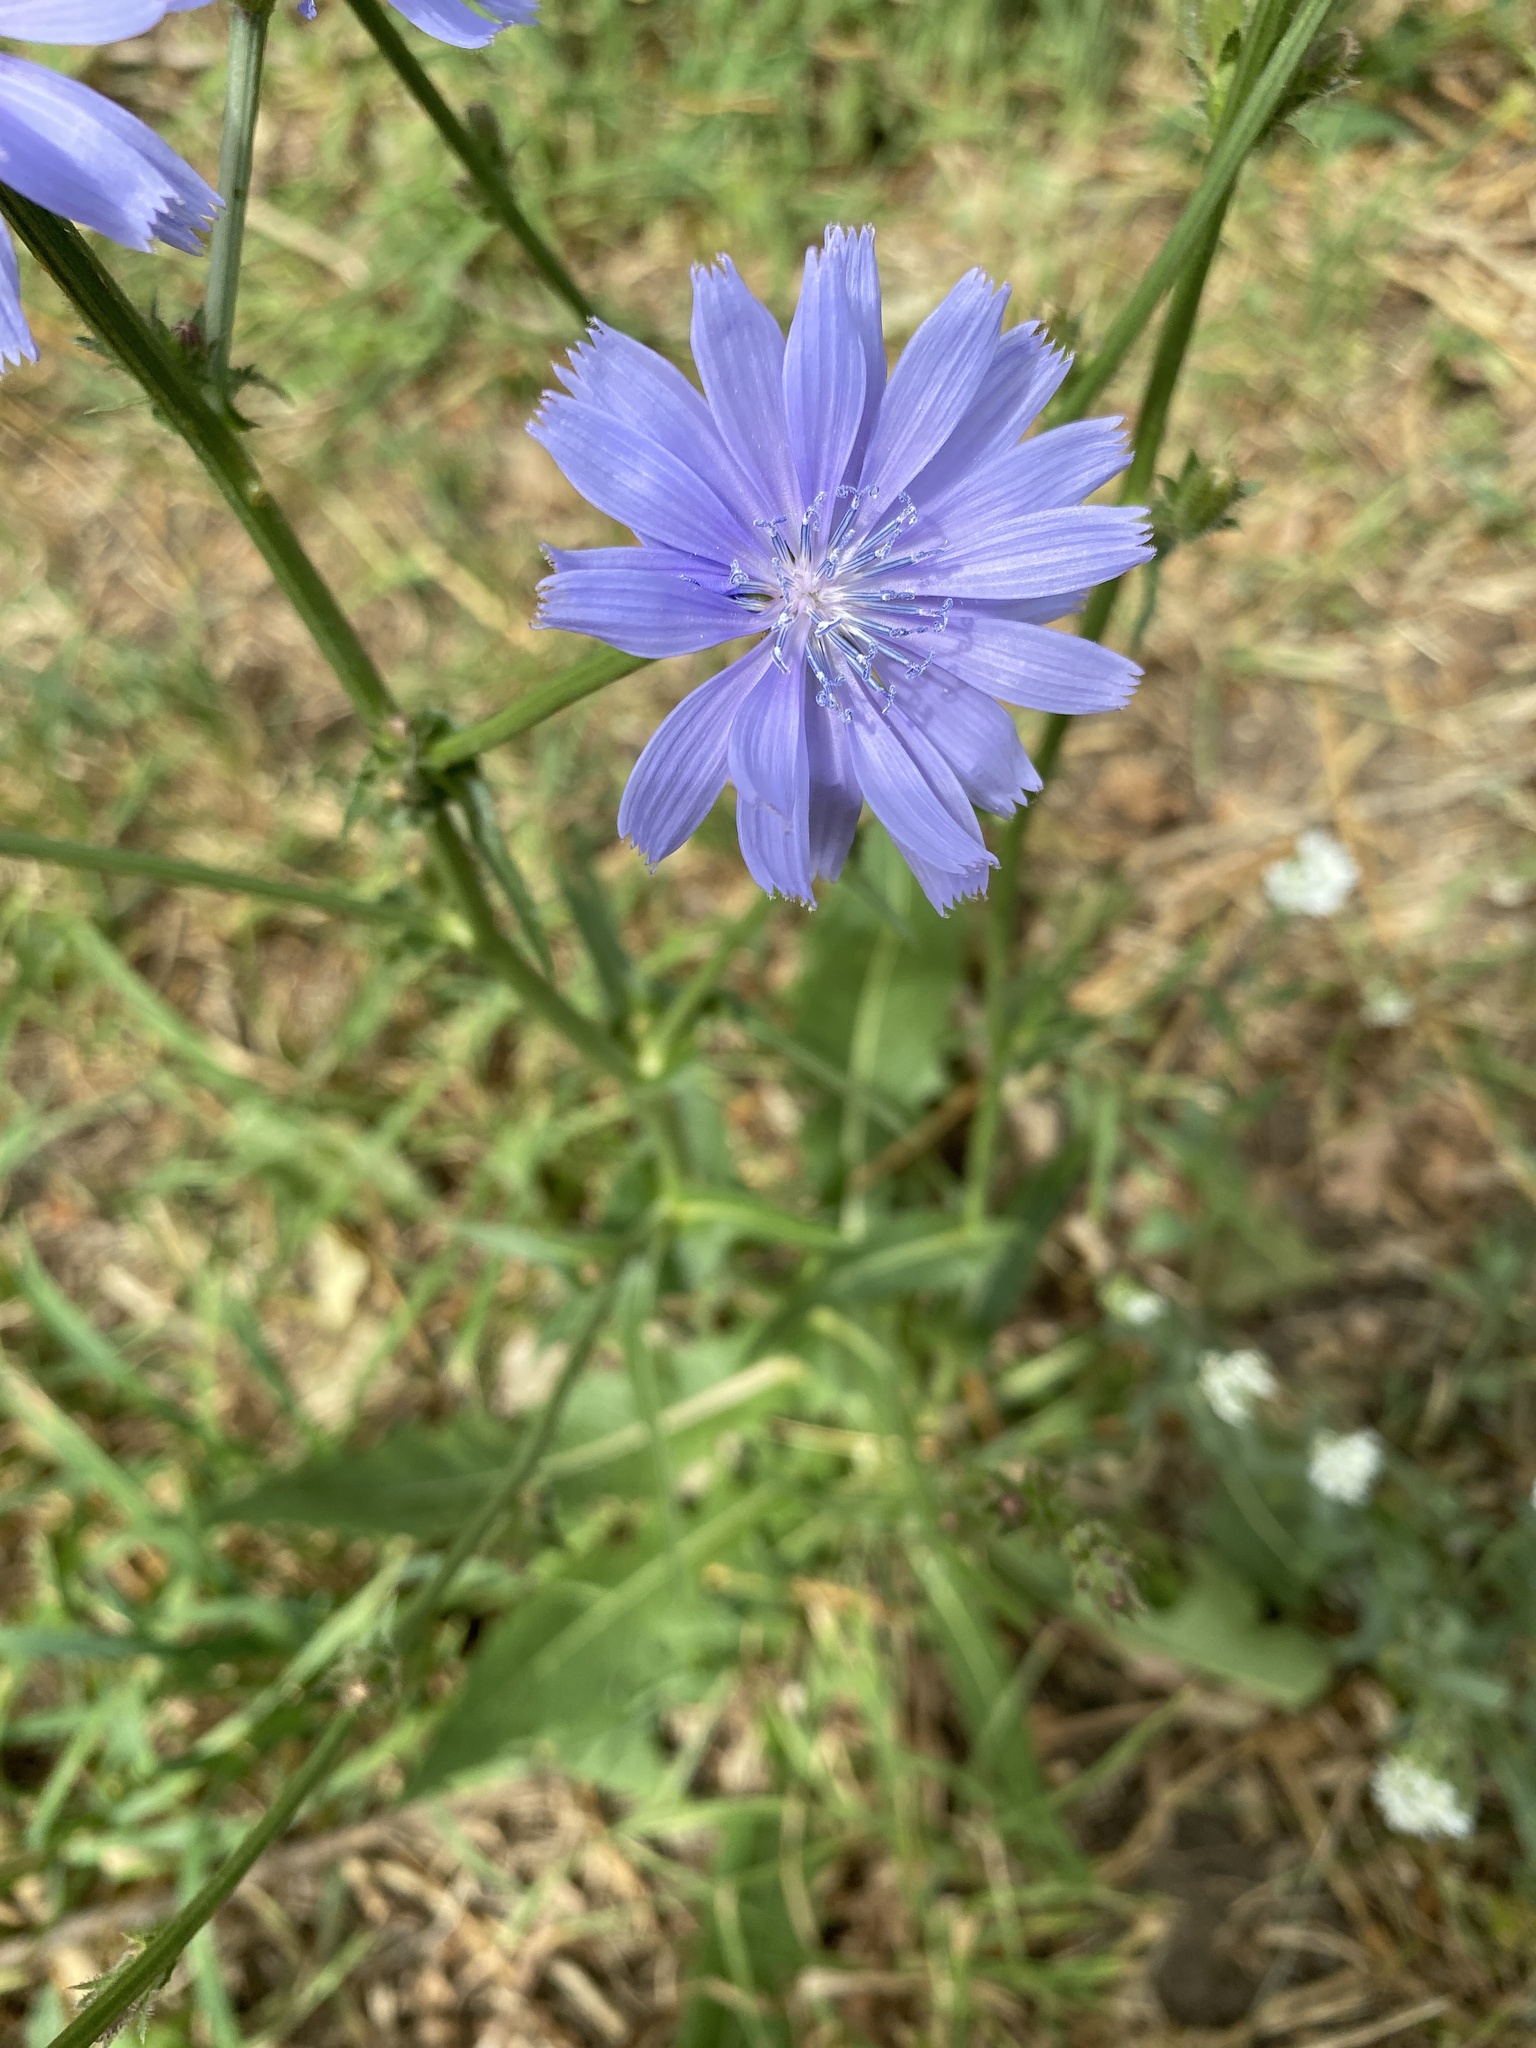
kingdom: Plantae
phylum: Tracheophyta
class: Magnoliopsida
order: Asterales
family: Asteraceae
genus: Cichorium
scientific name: Cichorium intybus
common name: Chicory
